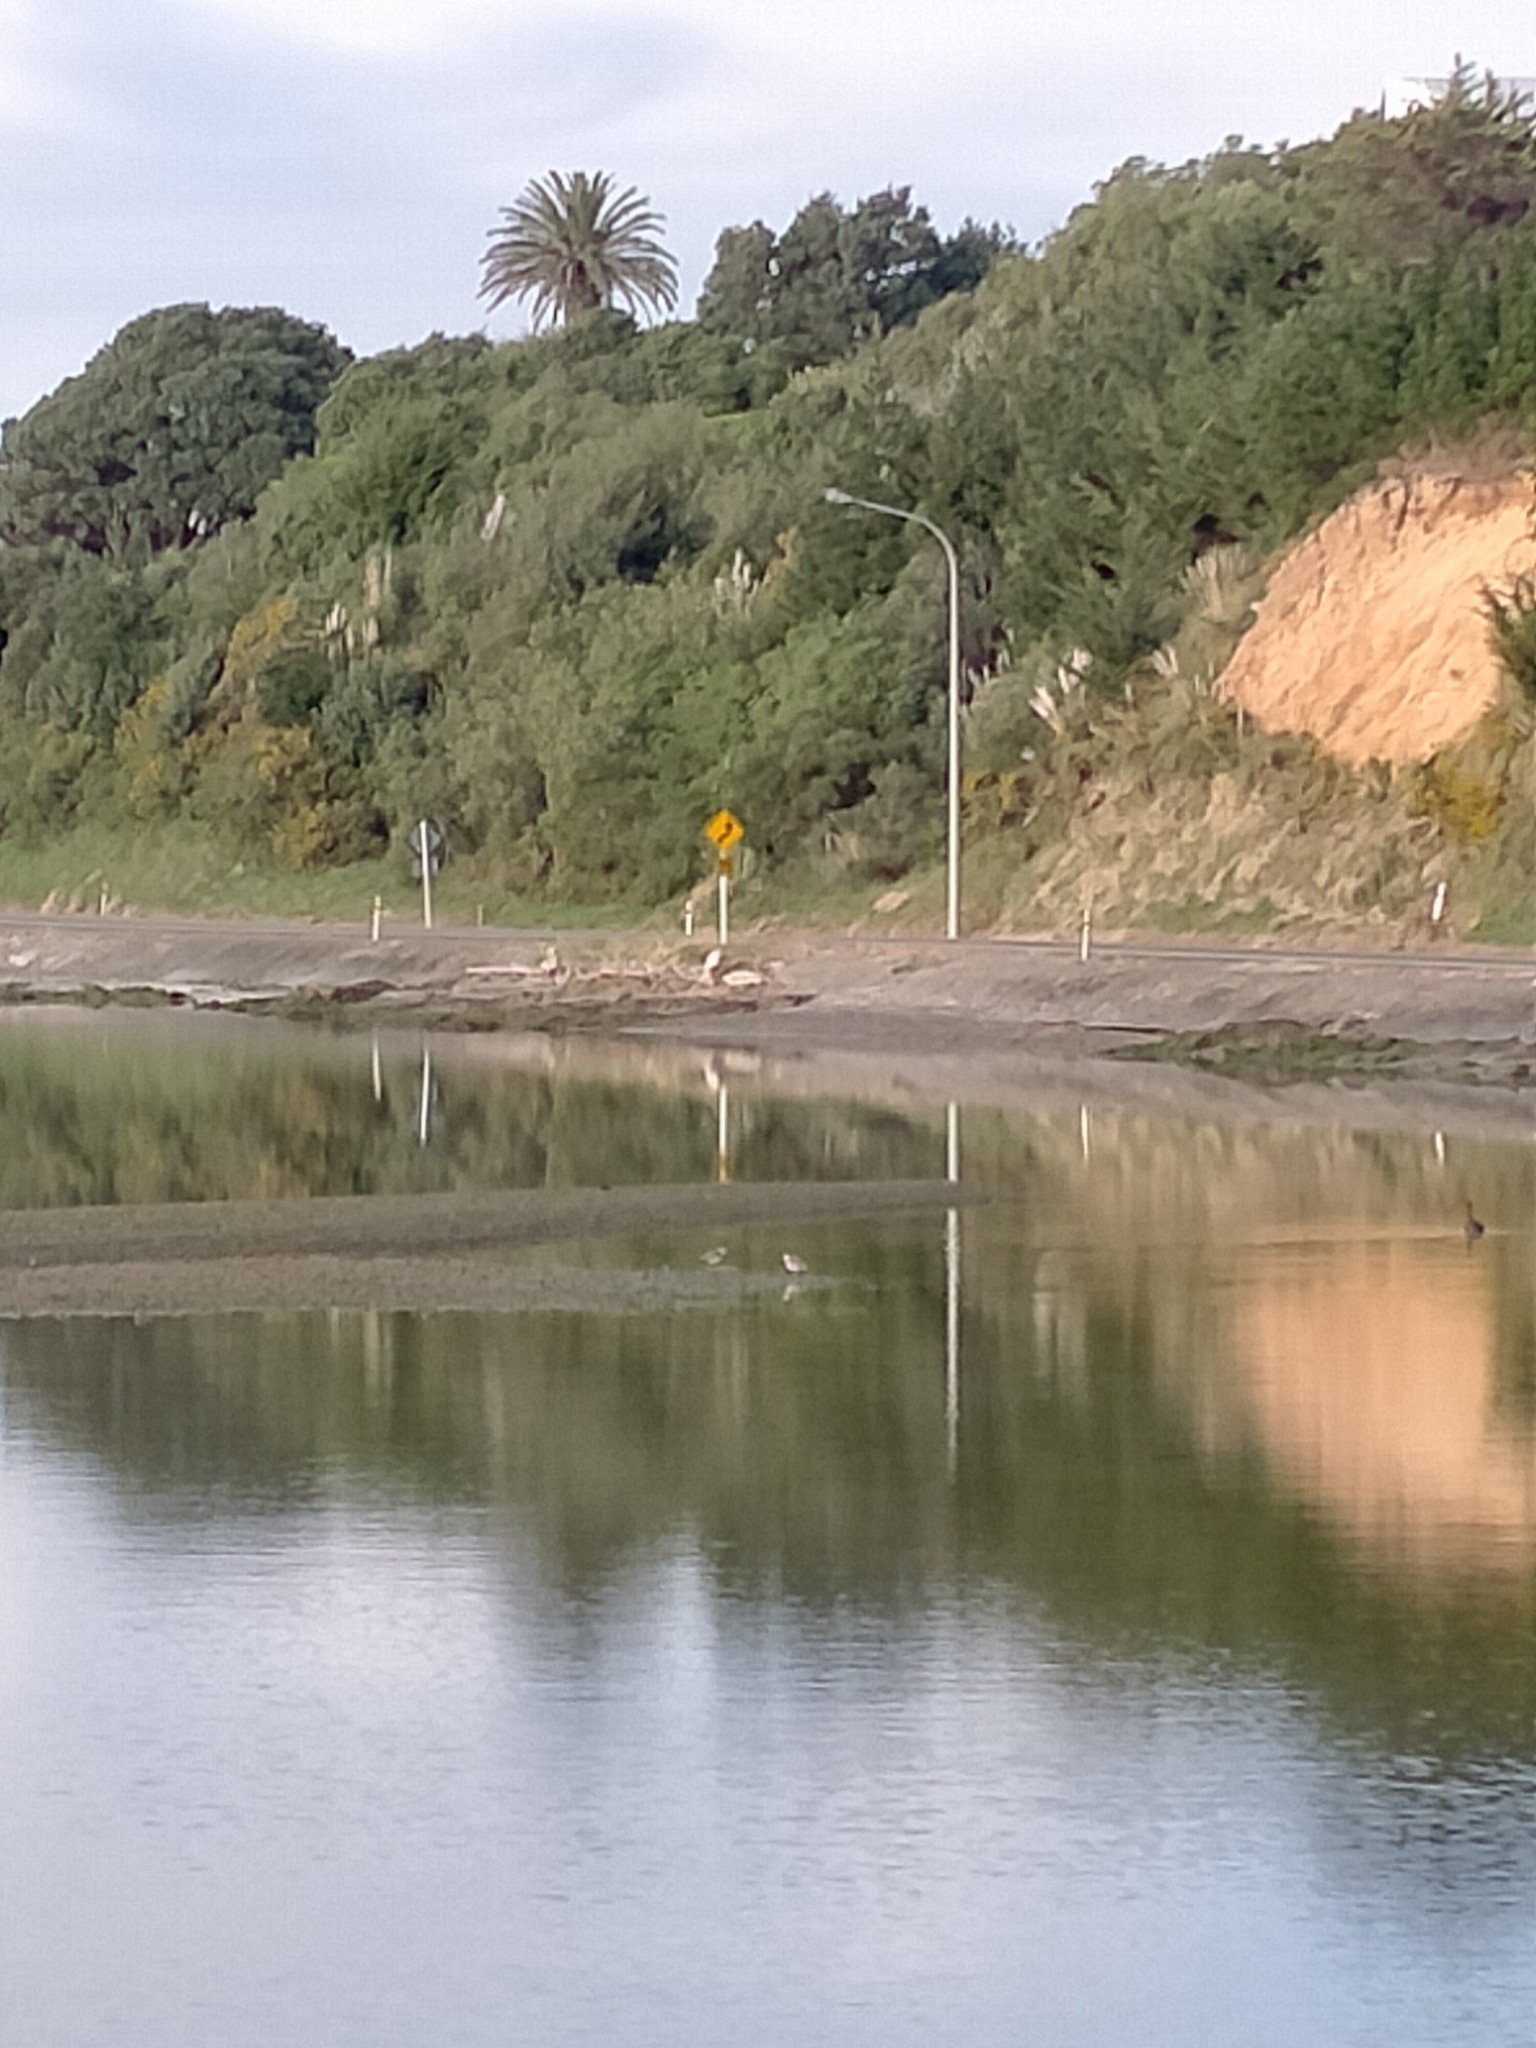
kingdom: Animalia
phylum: Chordata
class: Aves
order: Charadriiformes
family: Charadriidae
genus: Vanellus
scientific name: Vanellus miles
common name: Masked lapwing
